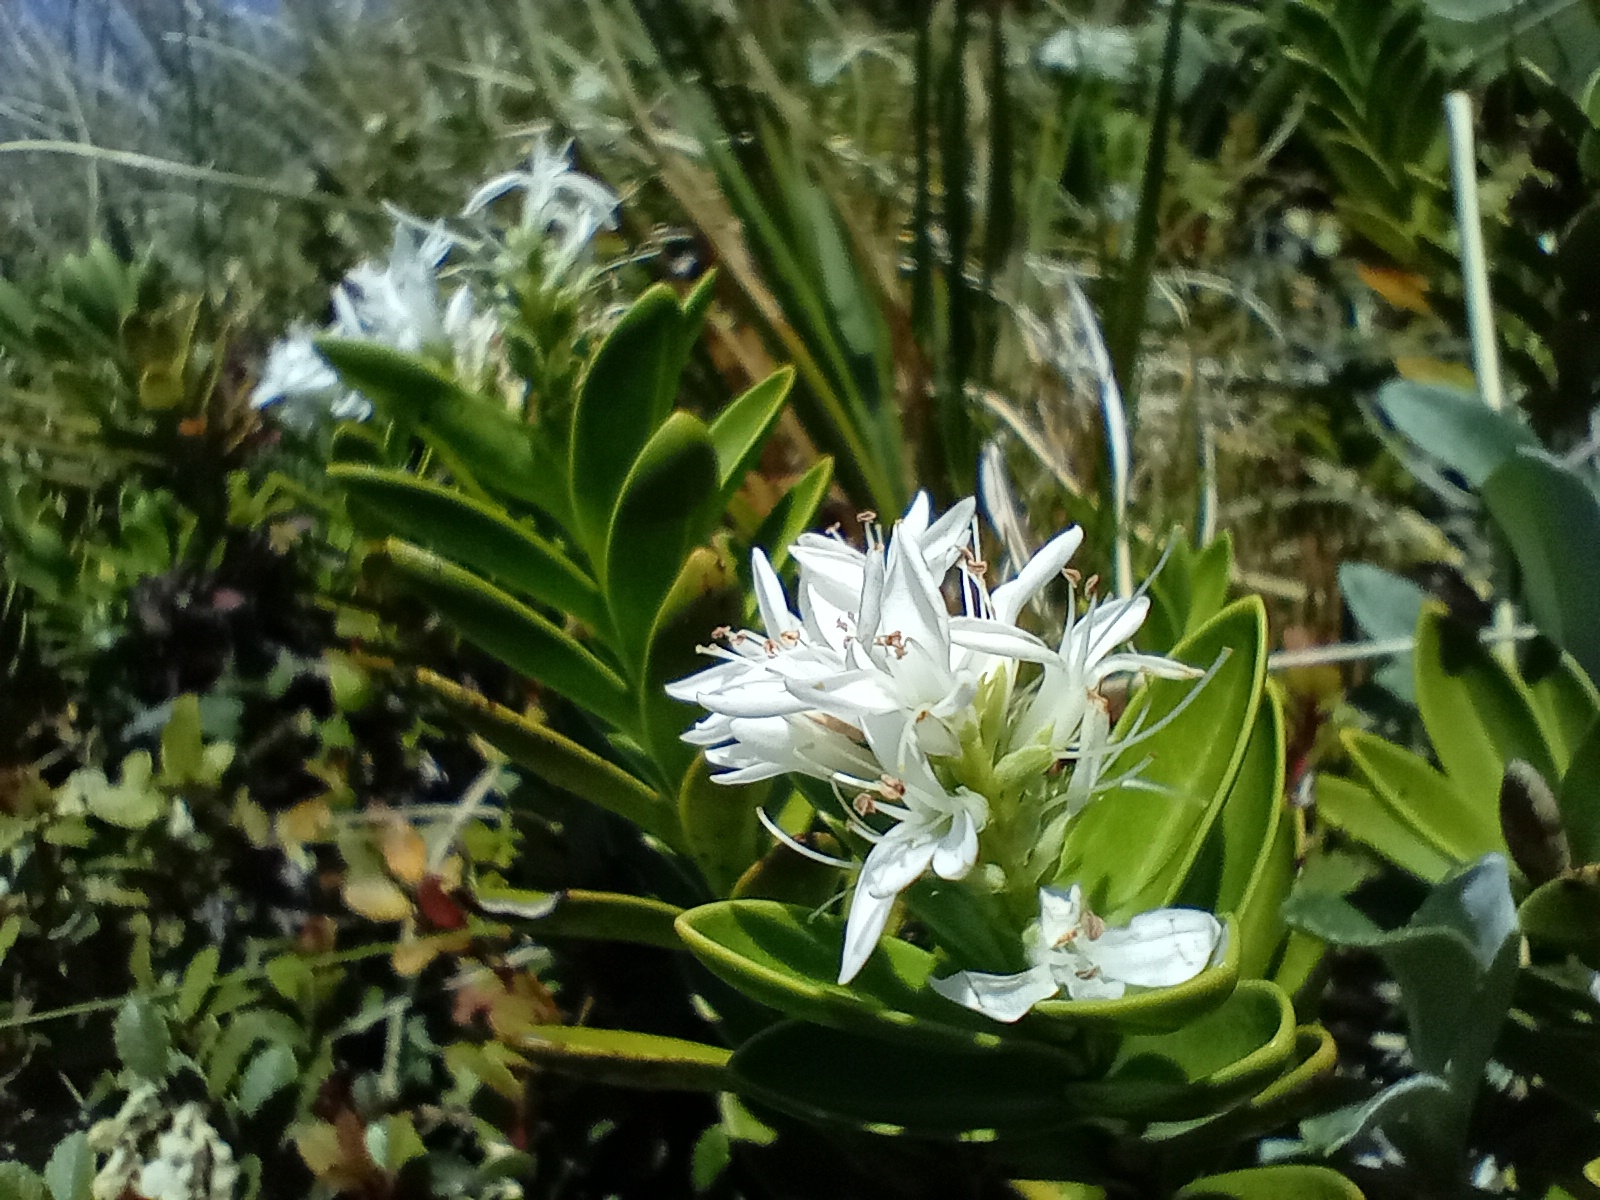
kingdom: Plantae
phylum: Tracheophyta
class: Magnoliopsida
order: Lamiales
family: Plantaginaceae
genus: Veronica
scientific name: Veronica treadwellii
